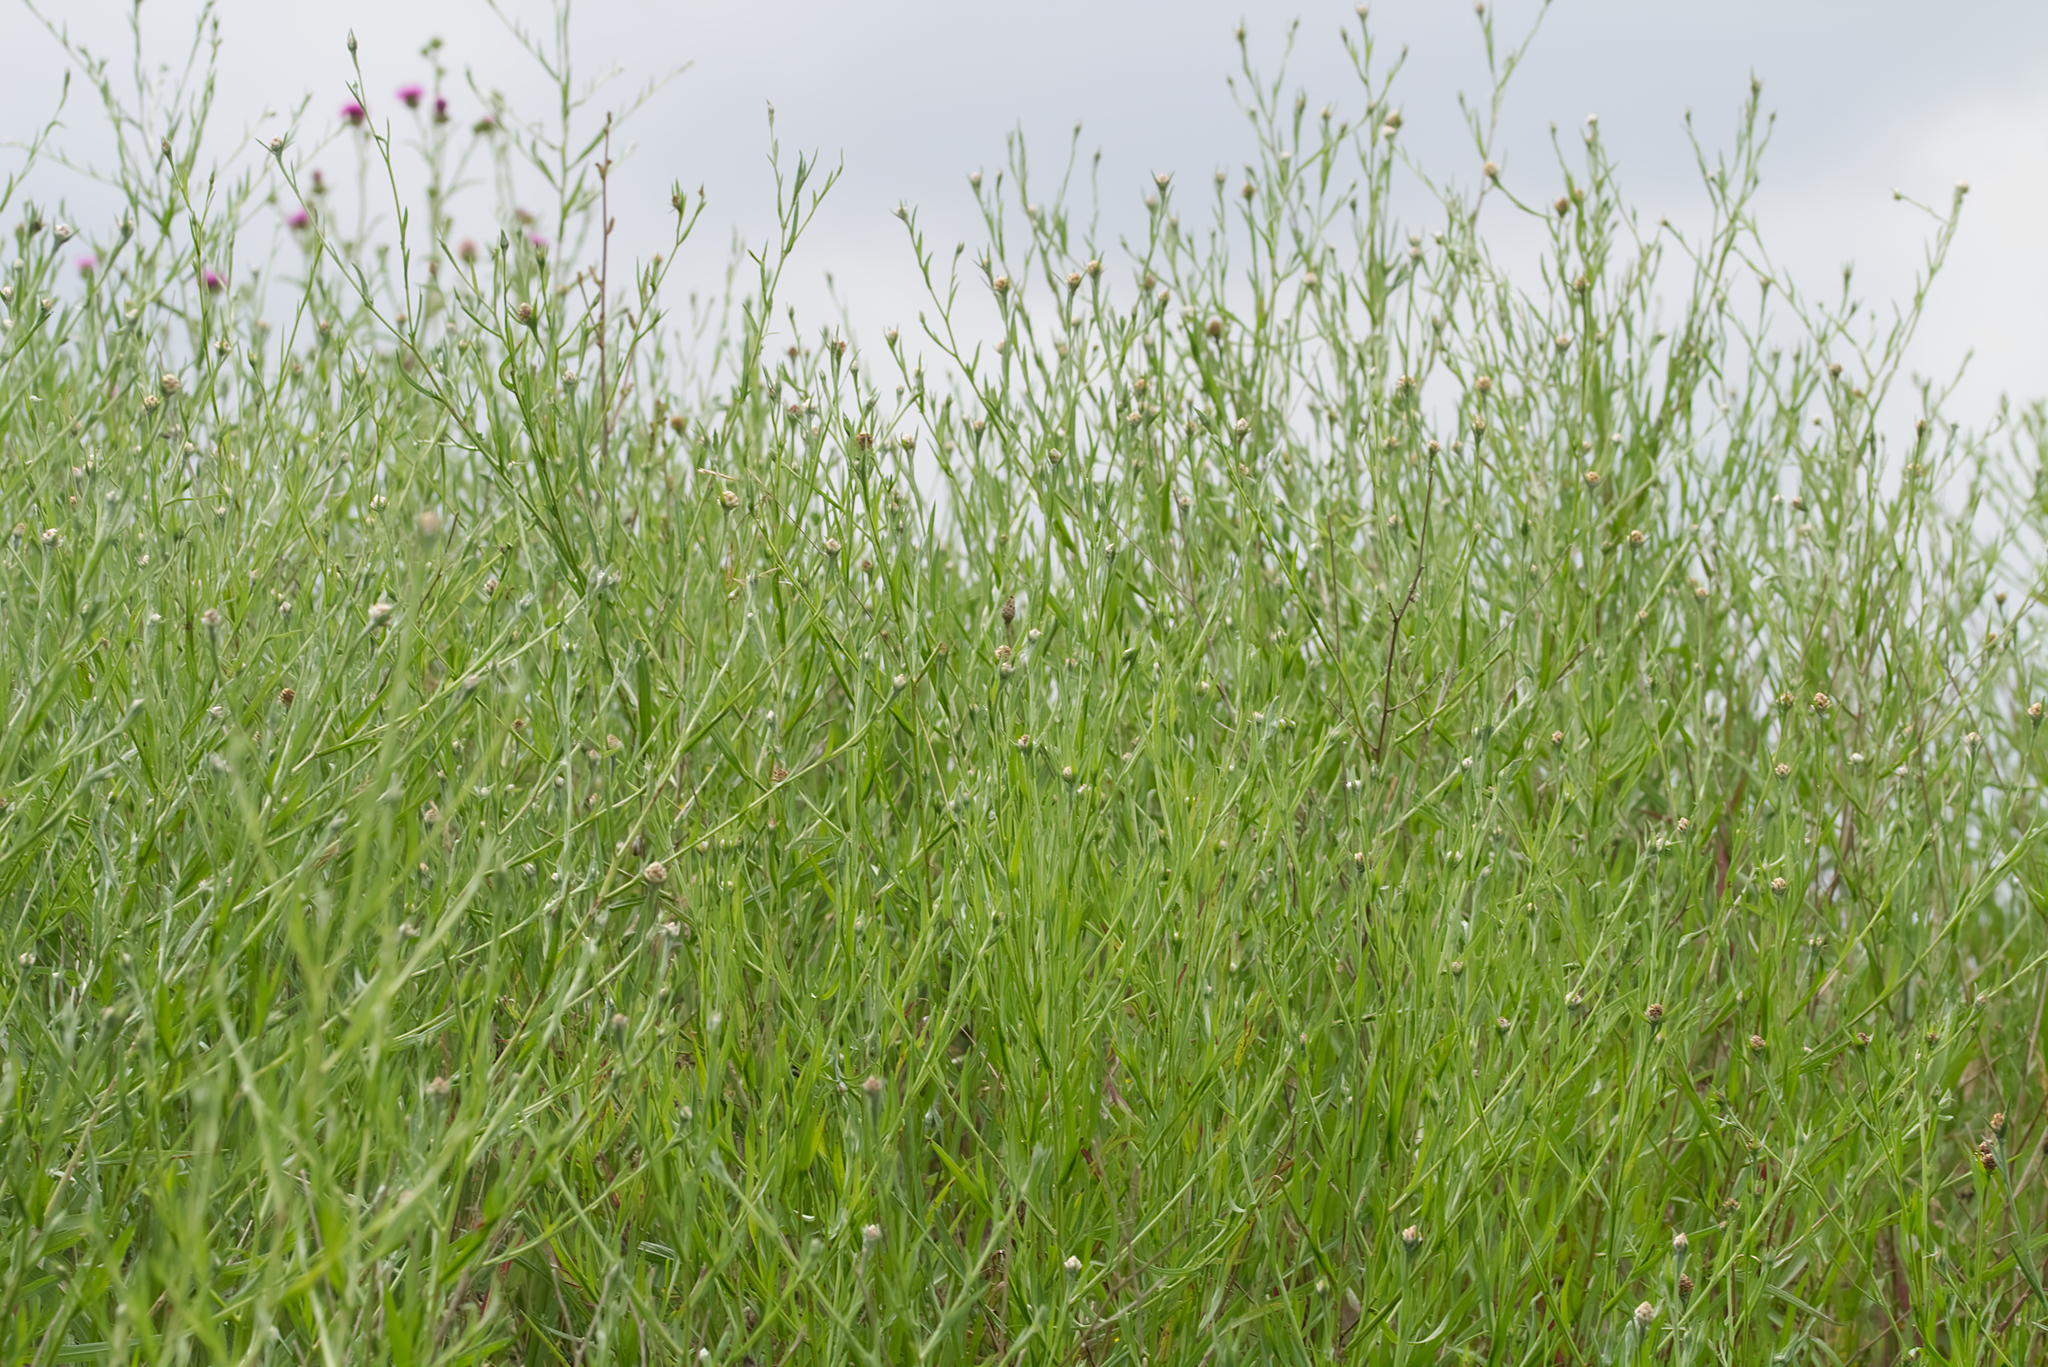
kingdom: Plantae
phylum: Tracheophyta
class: Magnoliopsida
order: Asterales
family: Asteraceae
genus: Centaurea
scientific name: Centaurea jacea
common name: Brown knapweed
